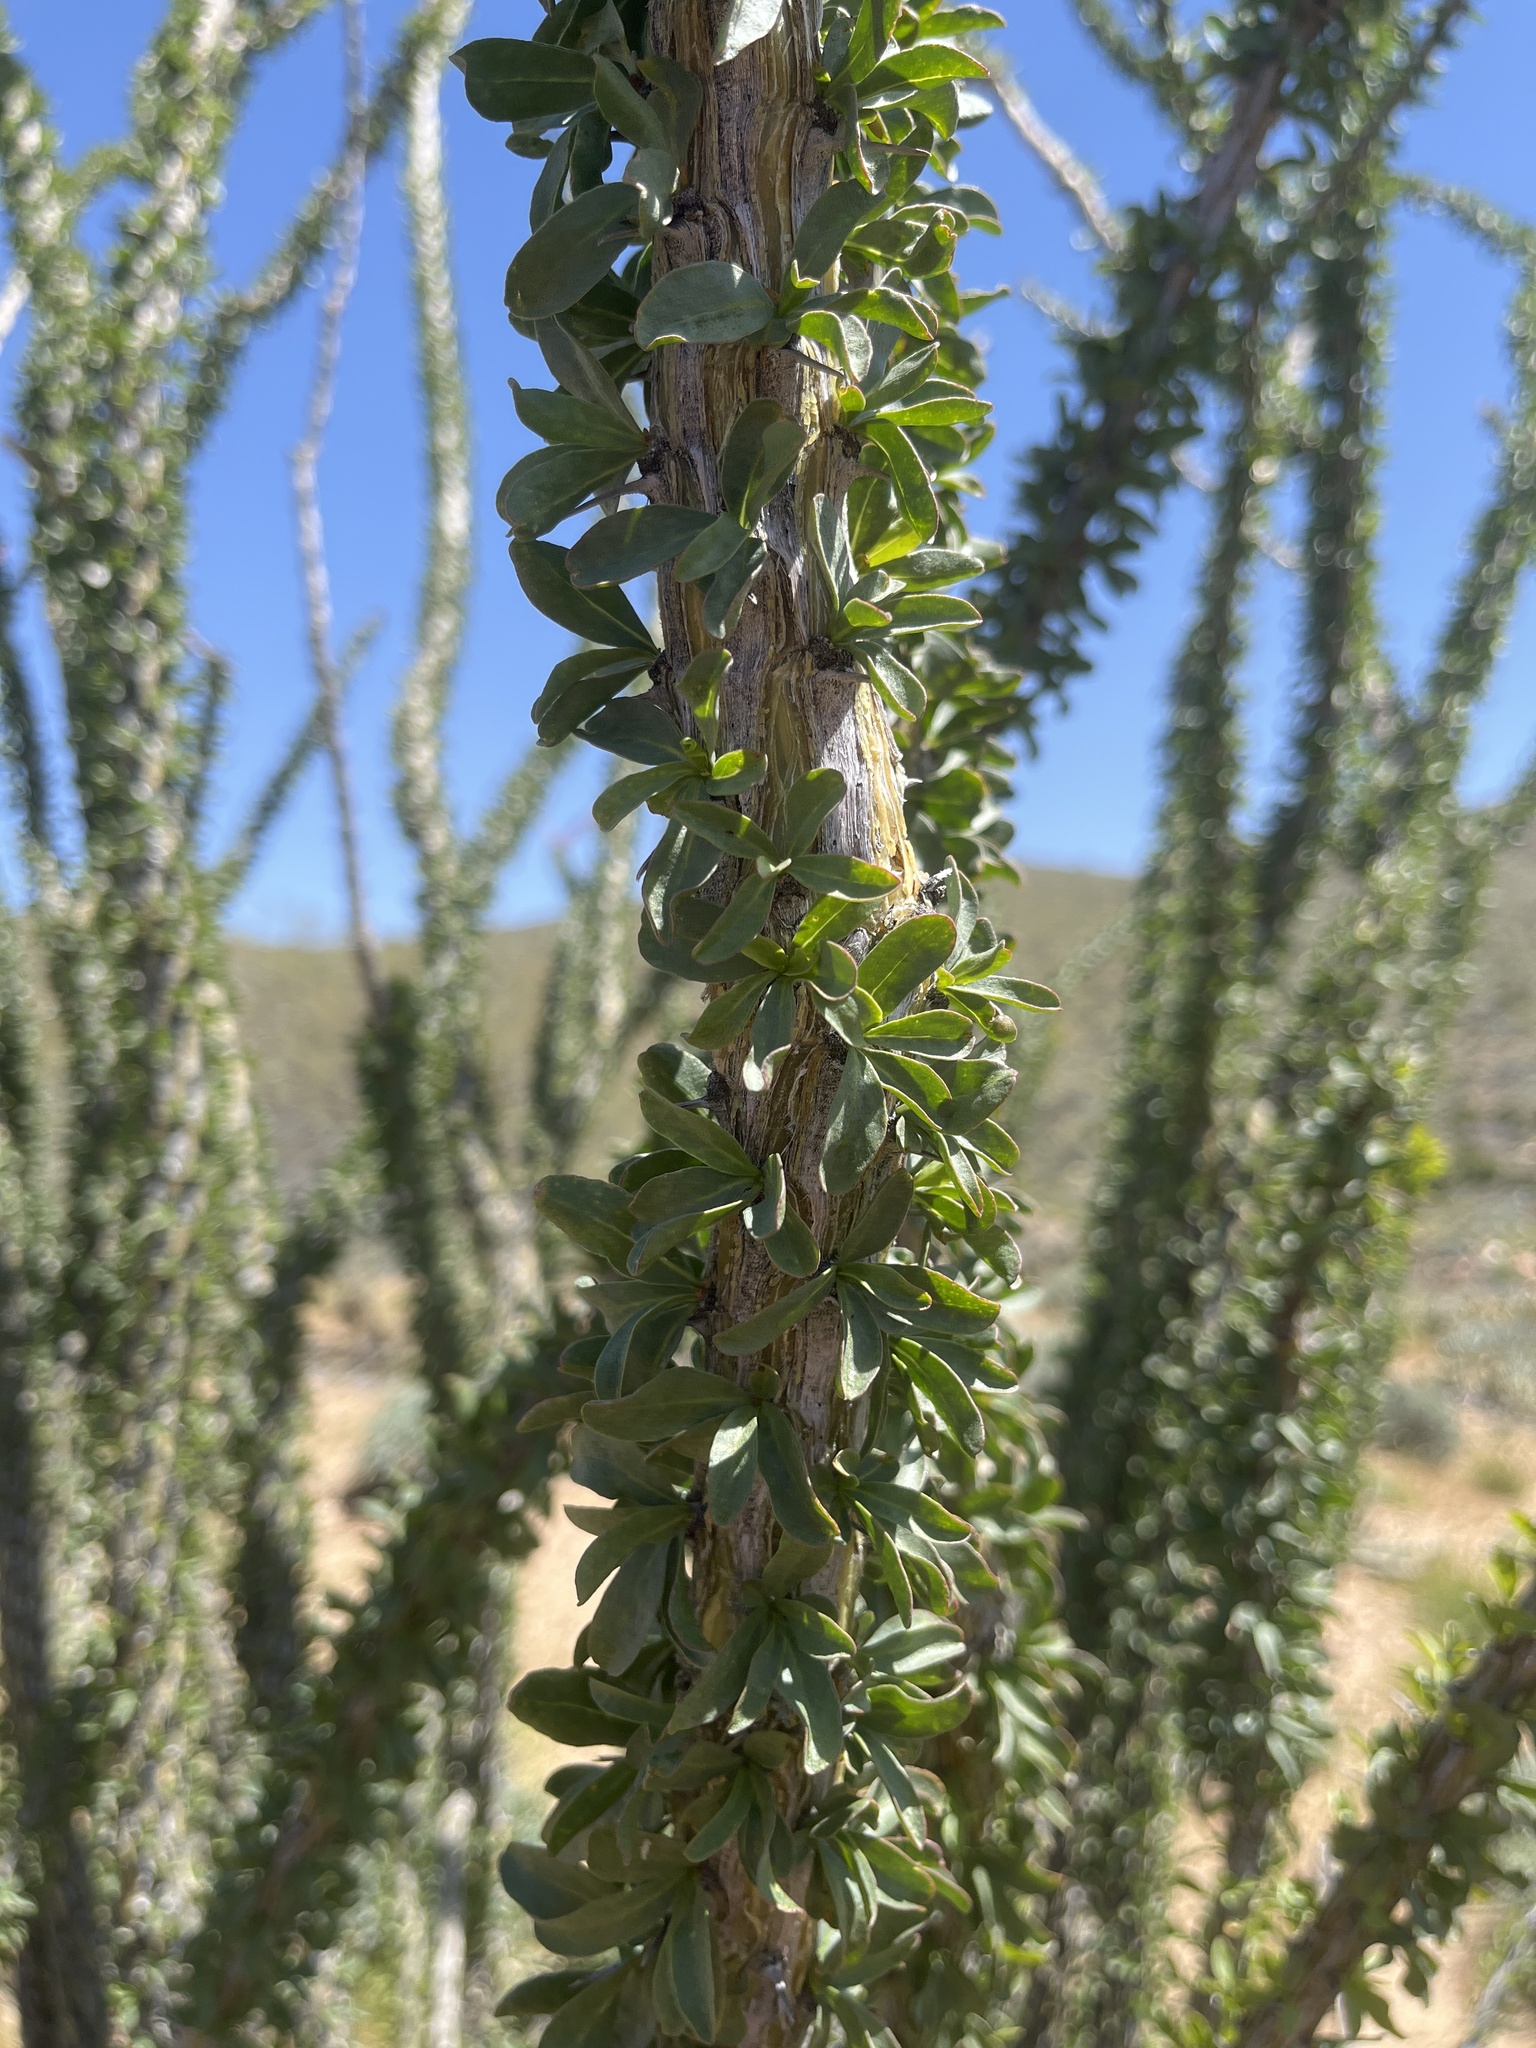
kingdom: Plantae
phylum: Tracheophyta
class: Magnoliopsida
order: Ericales
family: Fouquieriaceae
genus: Fouquieria
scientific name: Fouquieria splendens
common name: Vine-cactus
